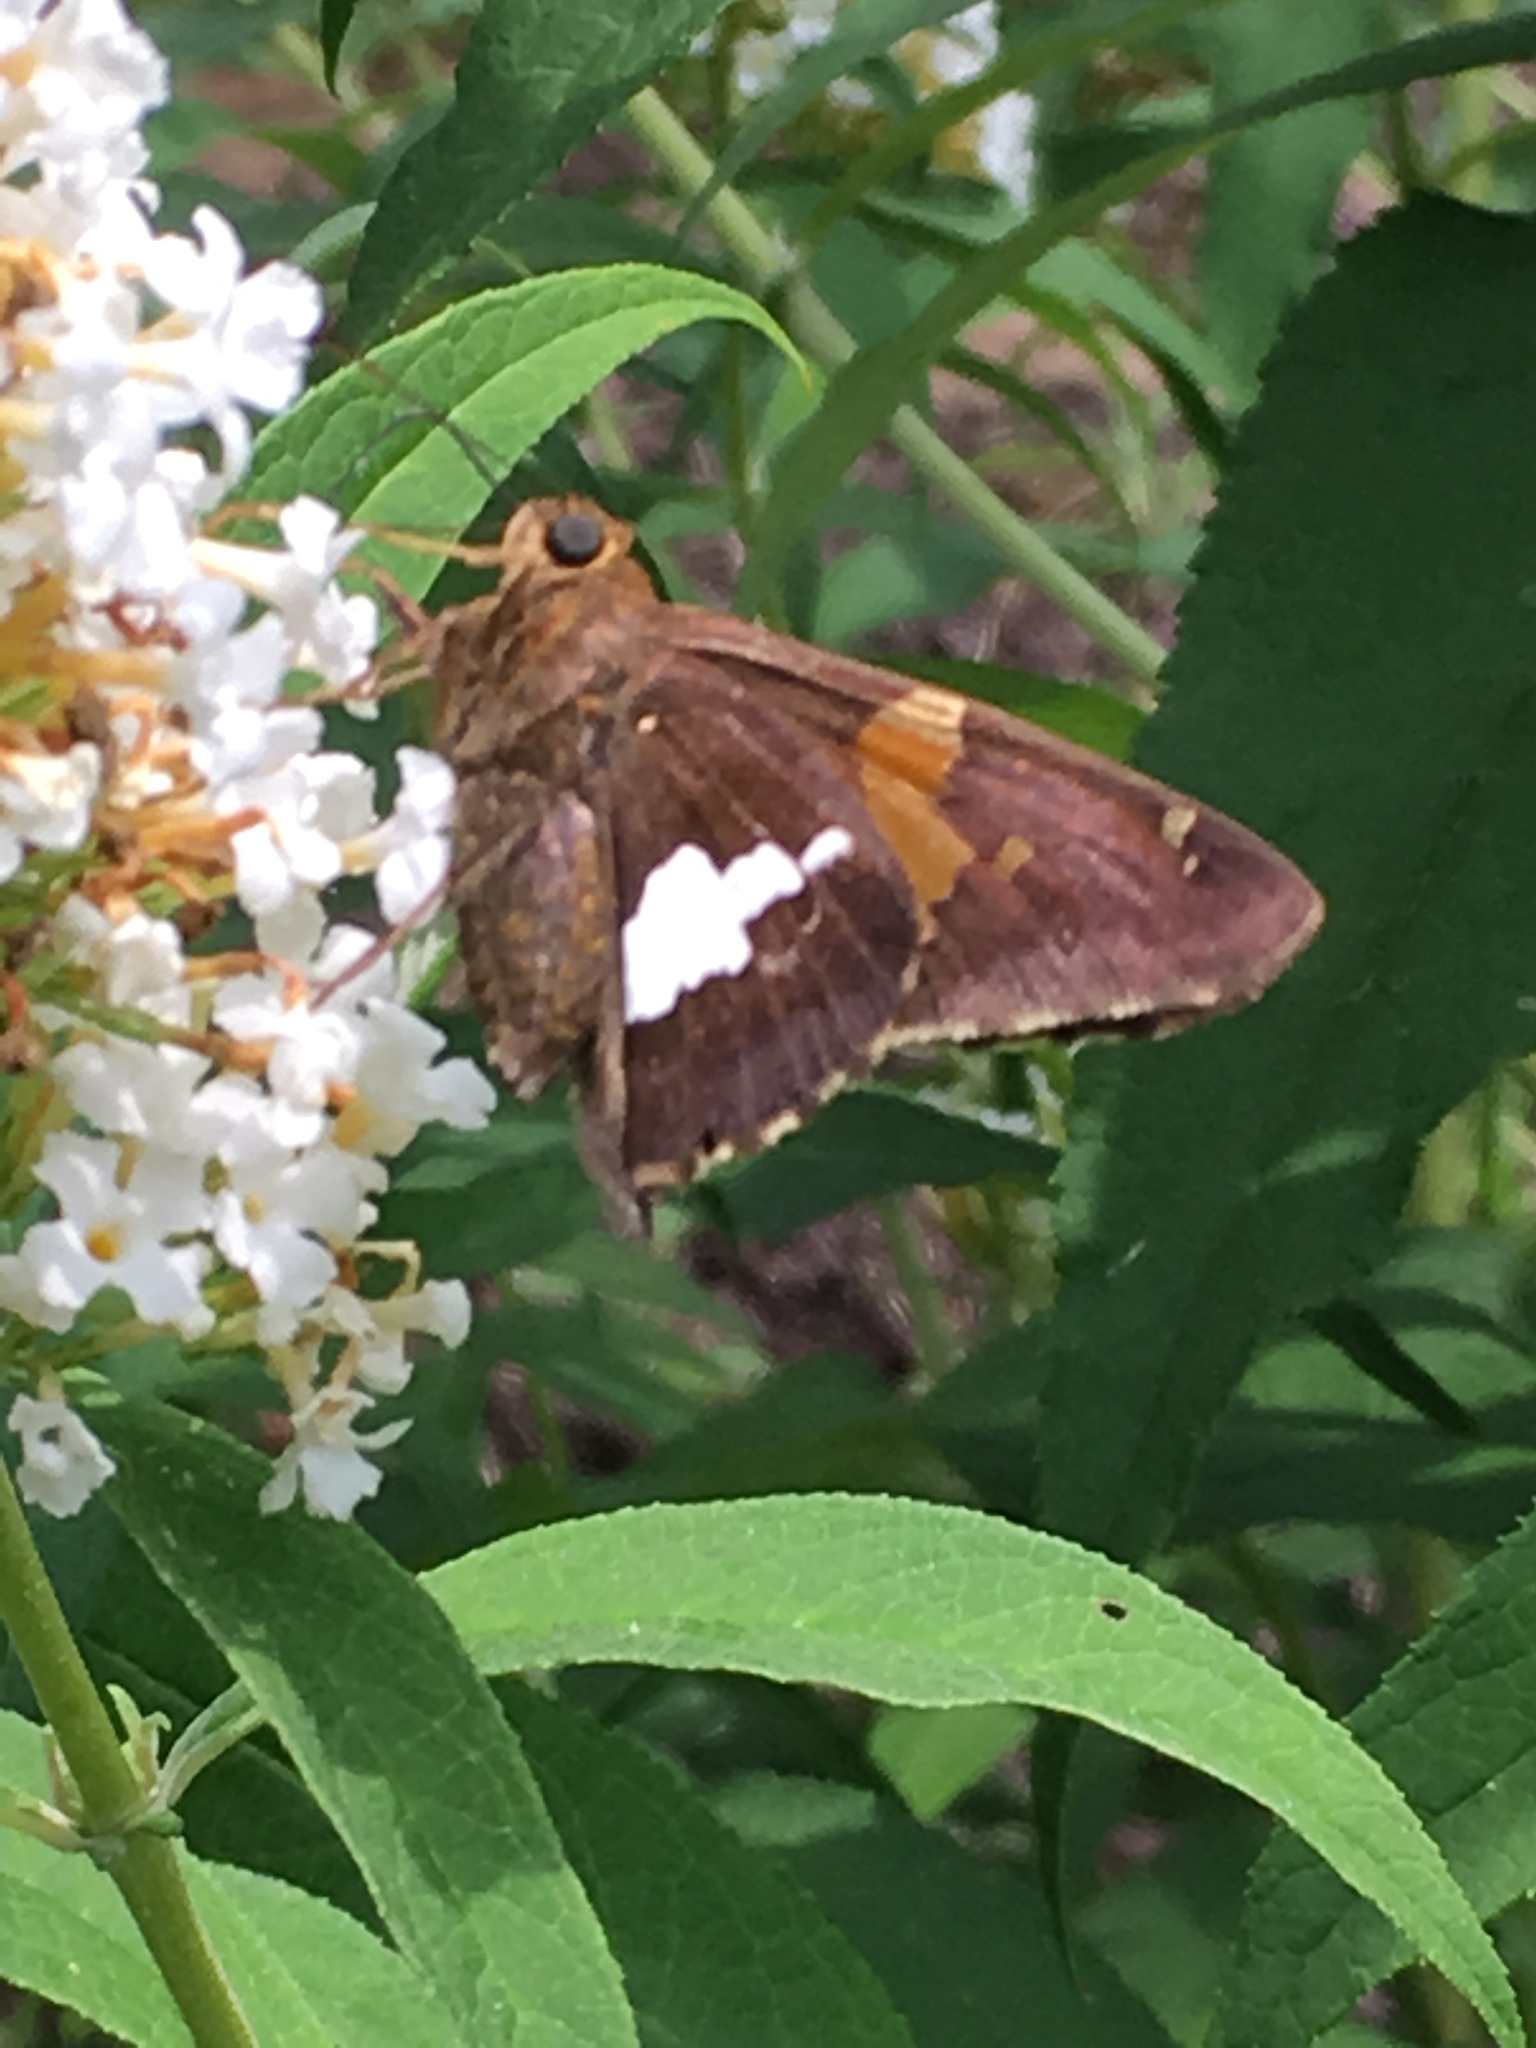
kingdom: Animalia
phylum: Arthropoda
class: Insecta
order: Lepidoptera
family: Hesperiidae
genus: Epargyreus
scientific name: Epargyreus clarus
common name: Silver-spotted skipper
